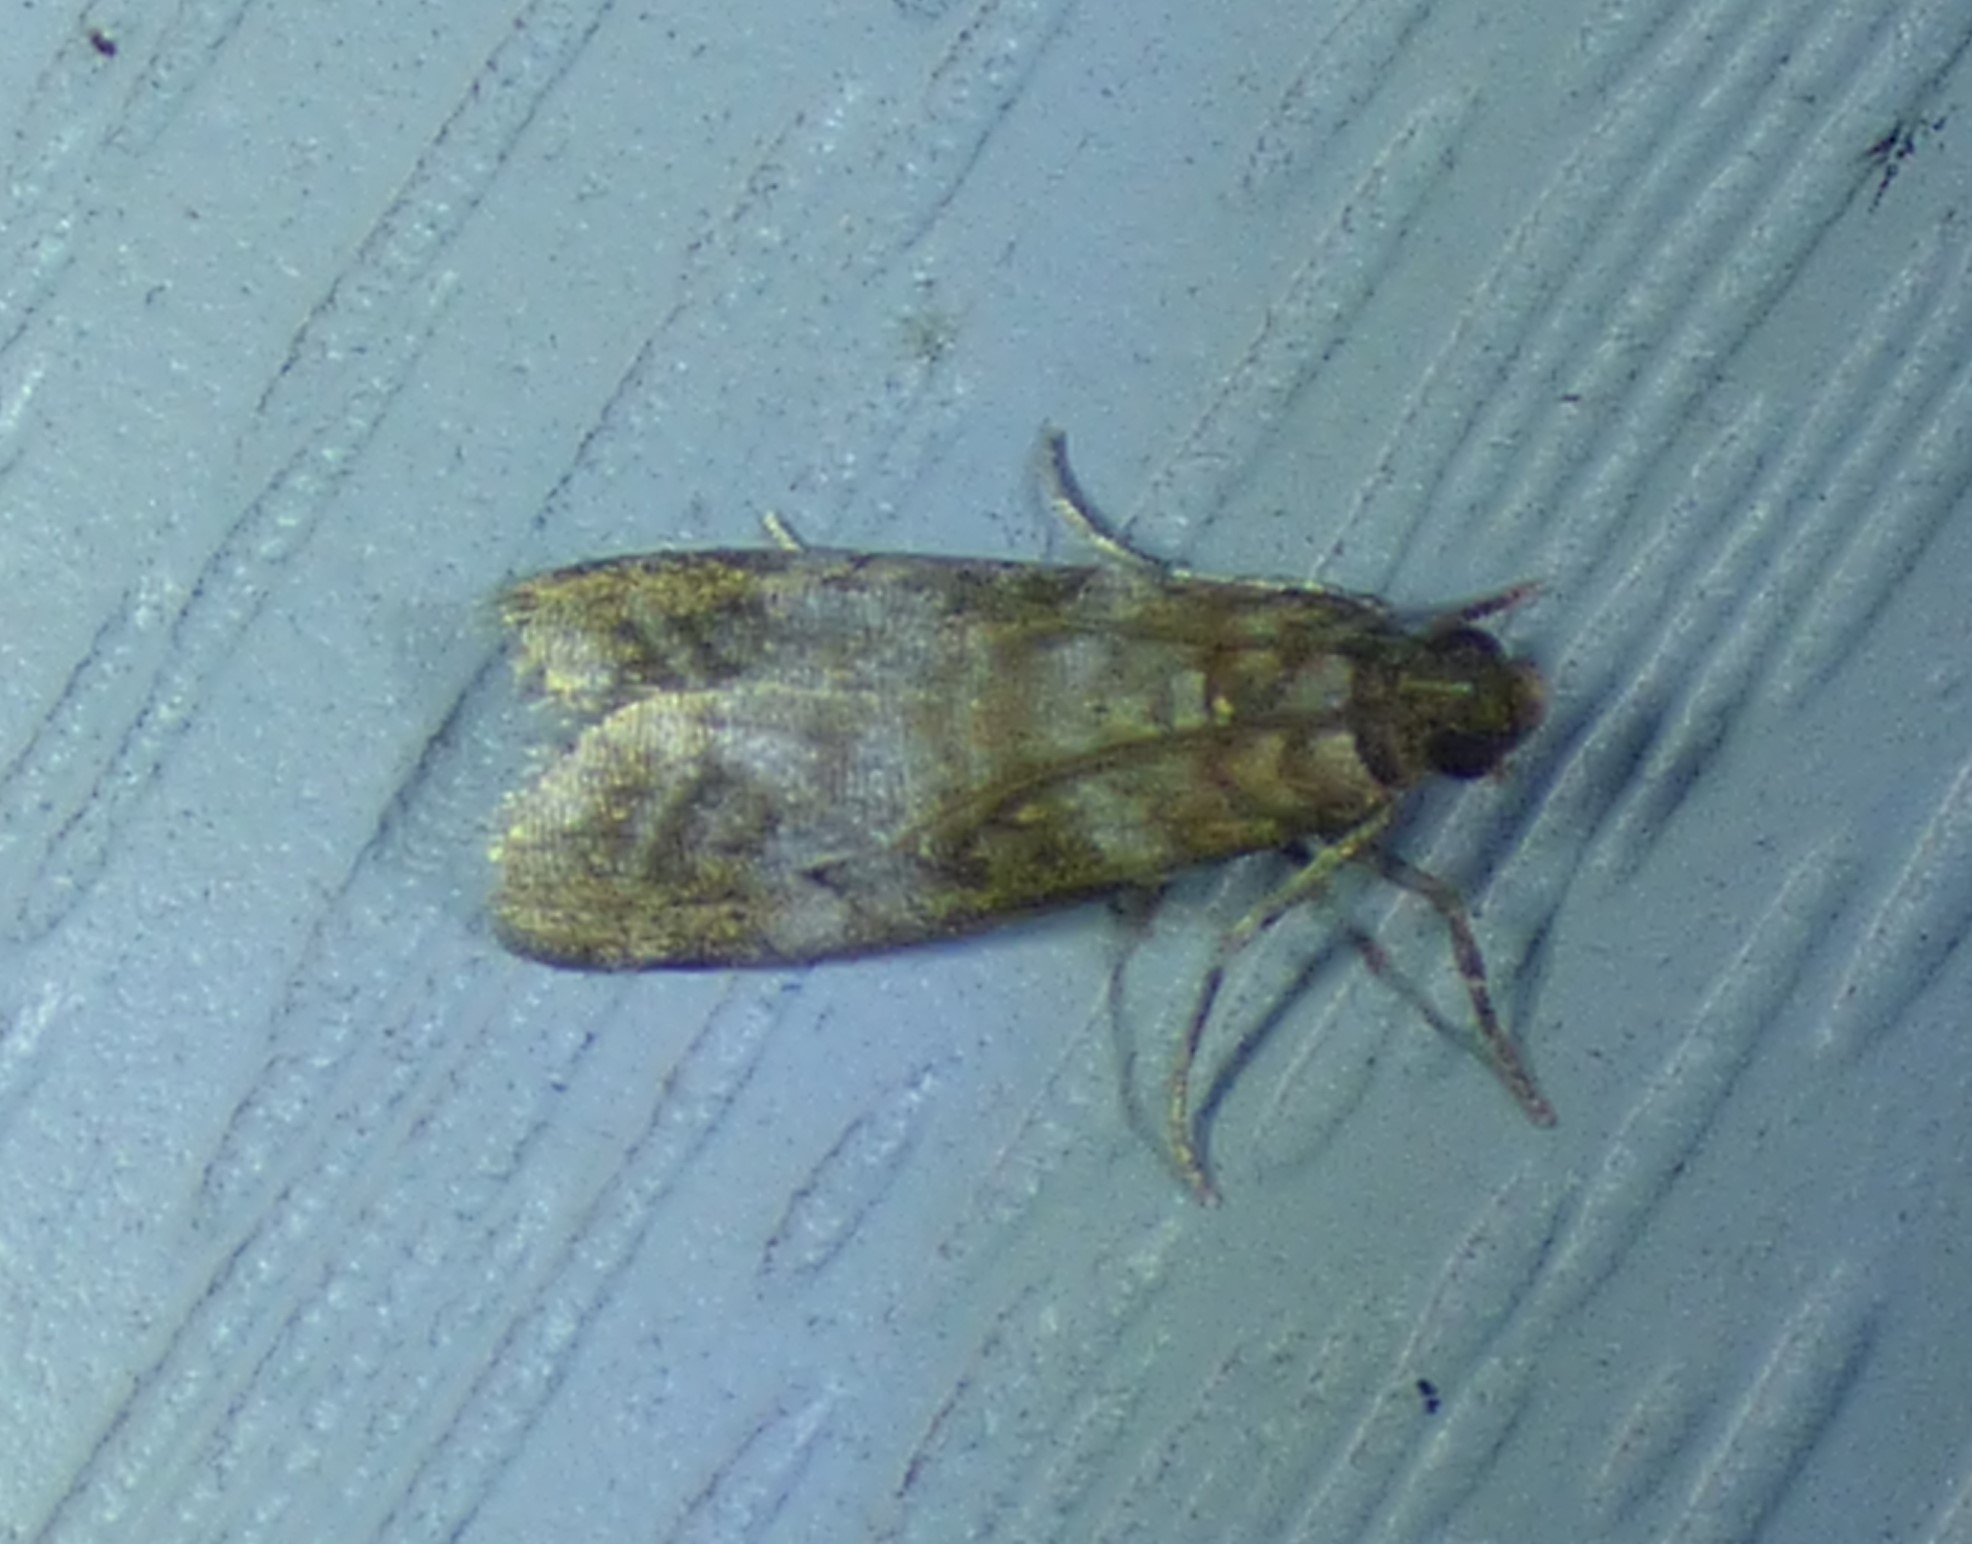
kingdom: Animalia
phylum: Arthropoda
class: Insecta
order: Lepidoptera
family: Pyralidae
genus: Sciota
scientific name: Sciota uvinella
